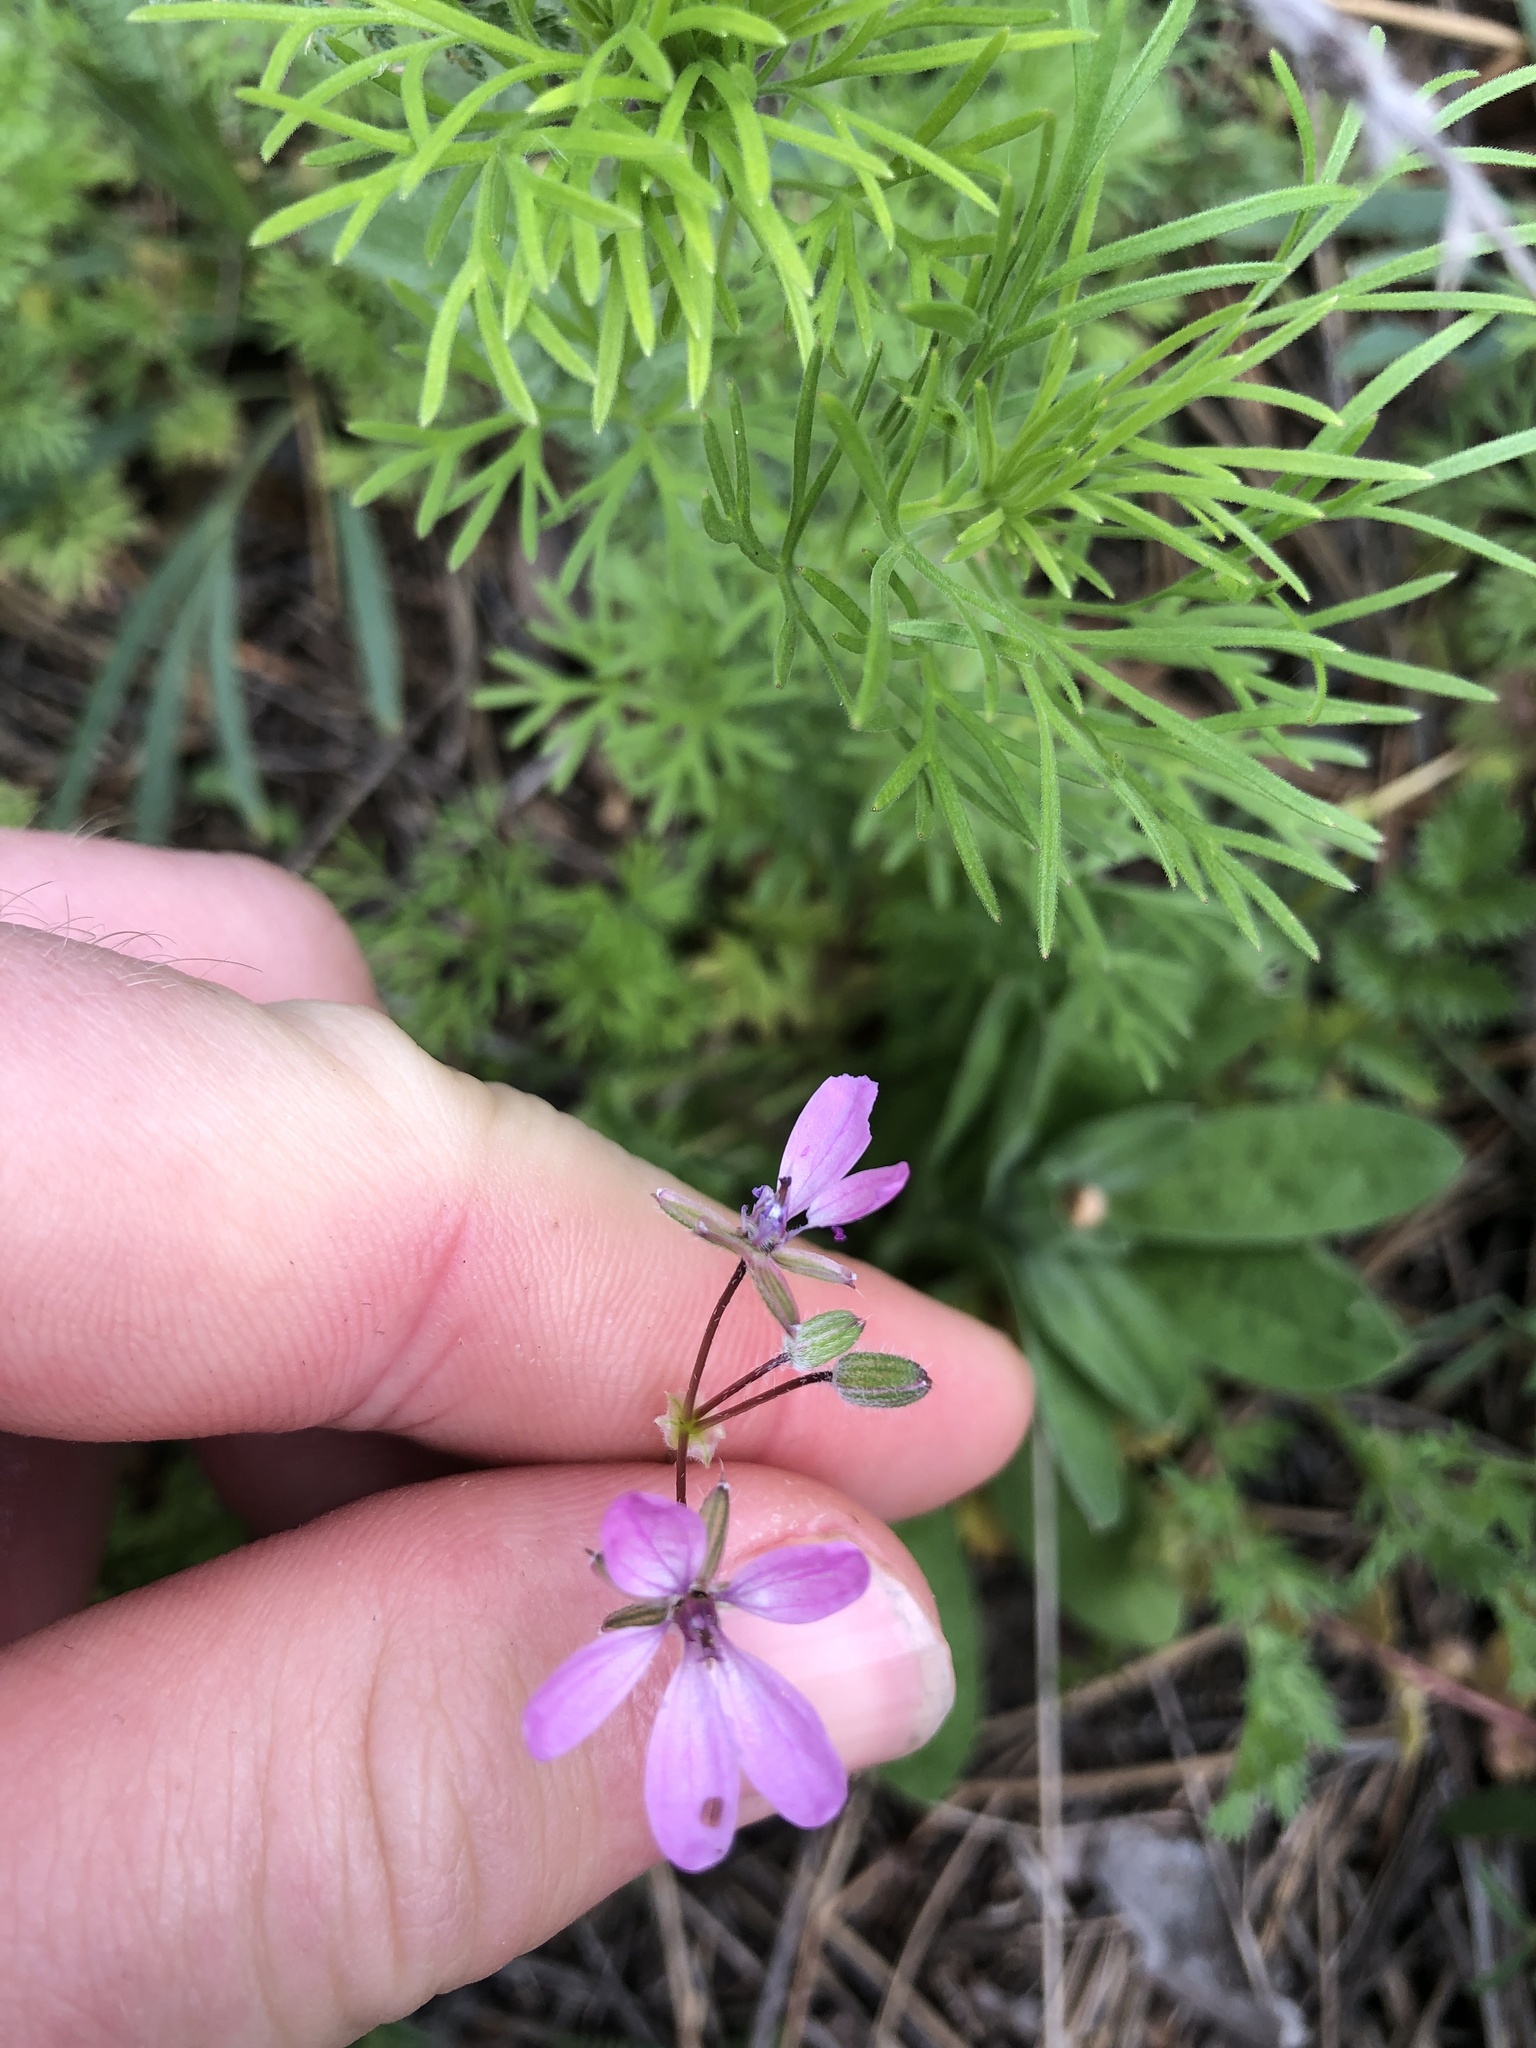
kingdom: Plantae
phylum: Tracheophyta
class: Magnoliopsida
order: Geraniales
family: Geraniaceae
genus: Erodium
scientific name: Erodium cicutarium
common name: Common stork's-bill
